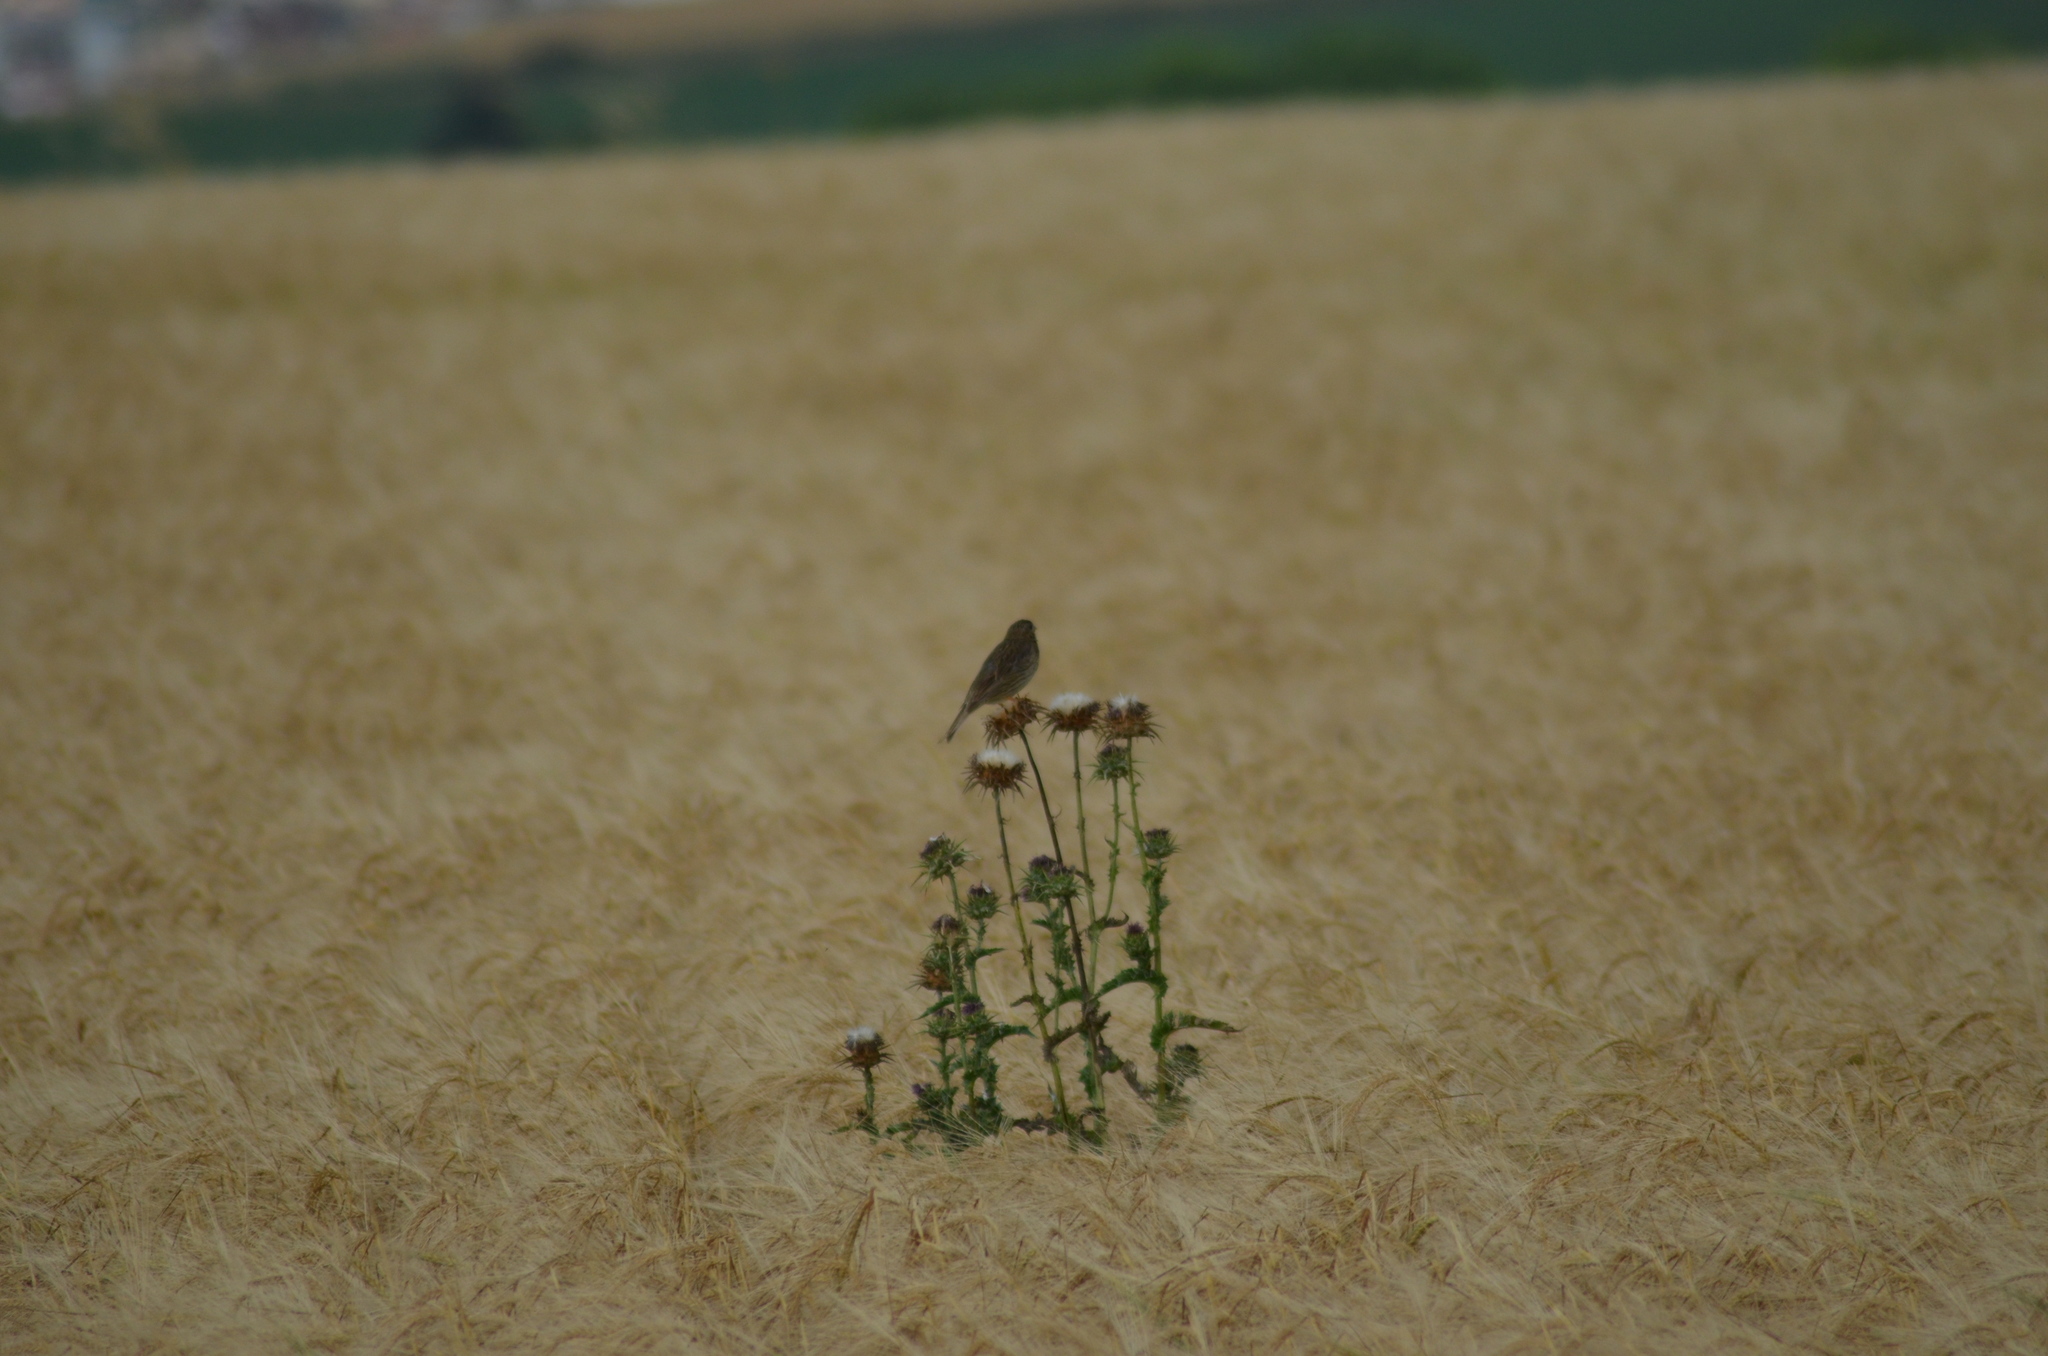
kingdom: Animalia
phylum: Chordata
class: Aves
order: Passeriformes
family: Emberizidae
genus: Emberiza
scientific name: Emberiza calandra
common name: Corn bunting
